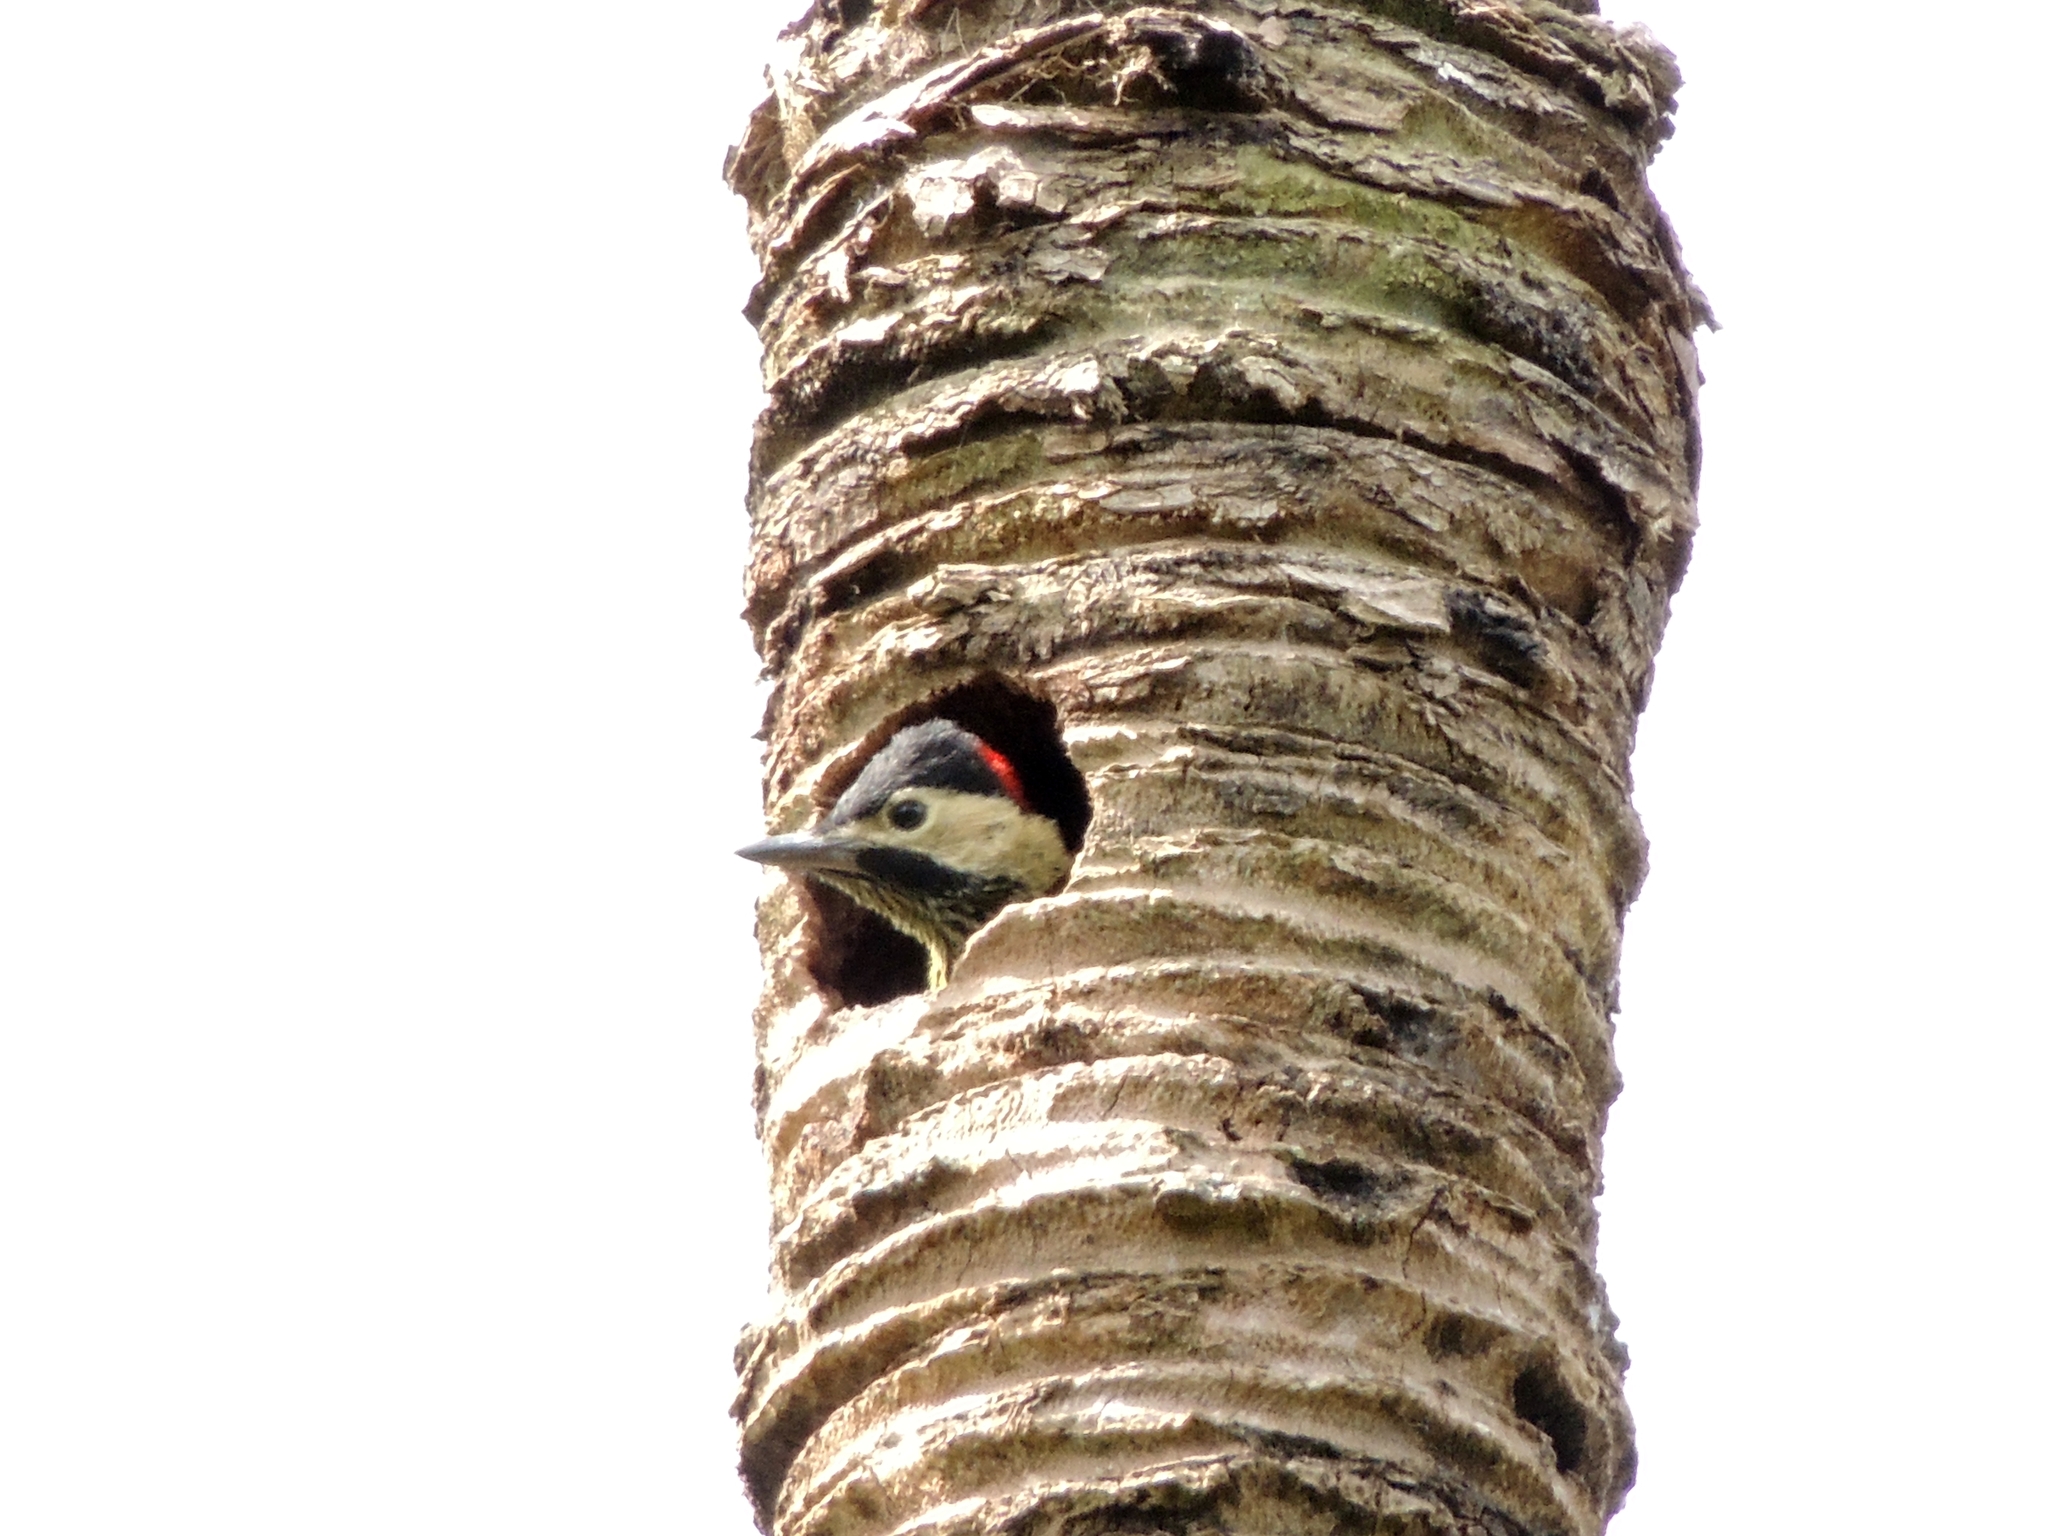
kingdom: Animalia
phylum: Chordata
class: Aves
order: Piciformes
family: Picidae
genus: Colaptes
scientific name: Colaptes melanochloros
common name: Green-barred woodpecker
